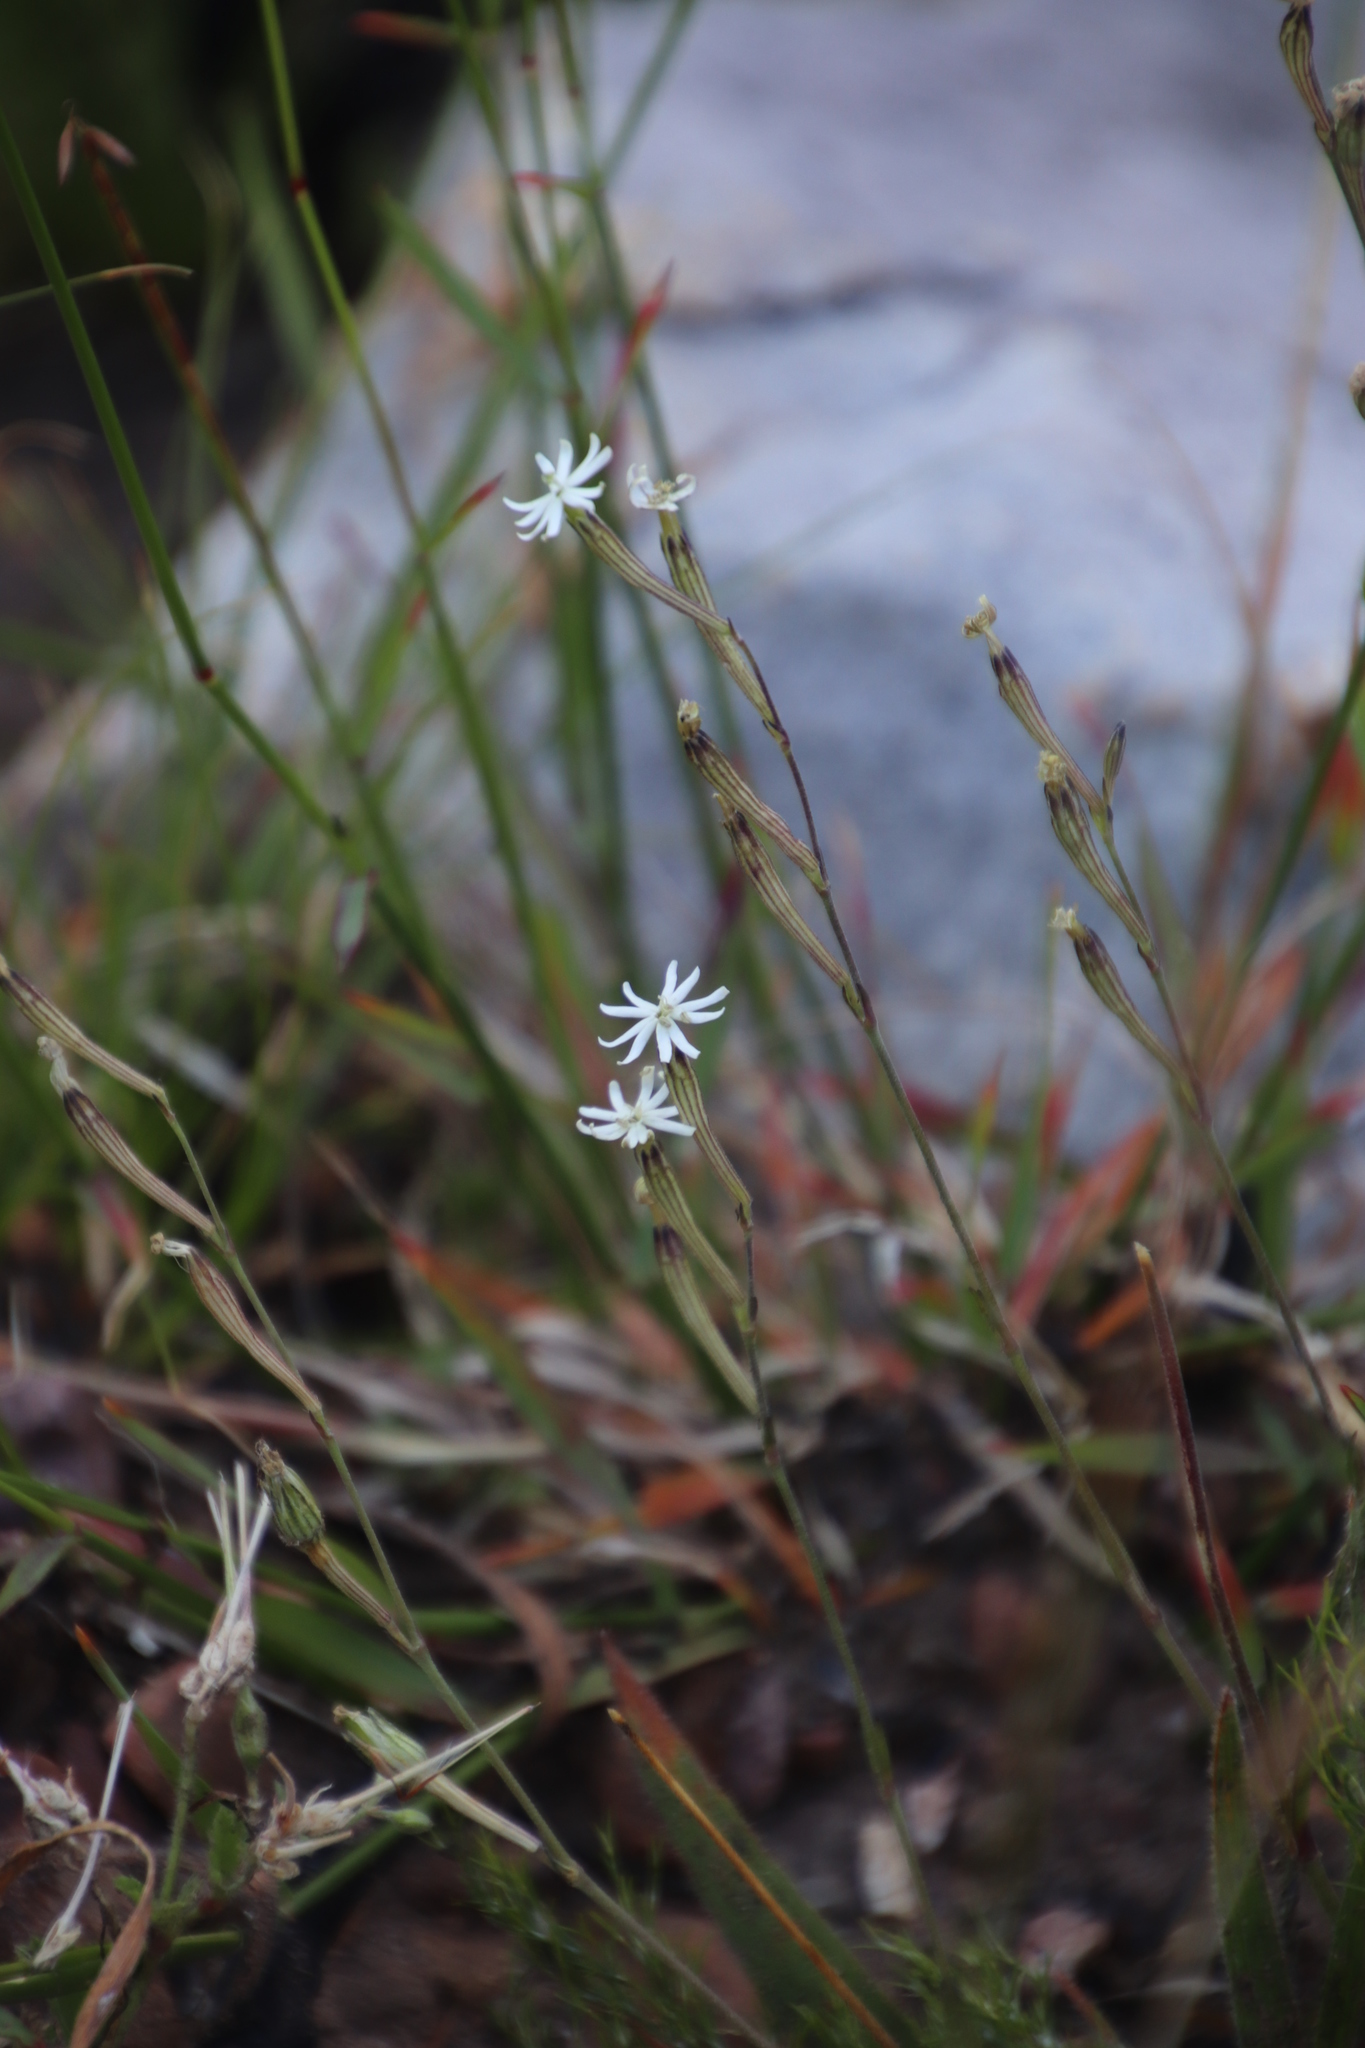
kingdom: Plantae
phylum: Tracheophyta
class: Magnoliopsida
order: Caryophyllales
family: Caryophyllaceae
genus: Silene
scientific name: Silene burchellii
